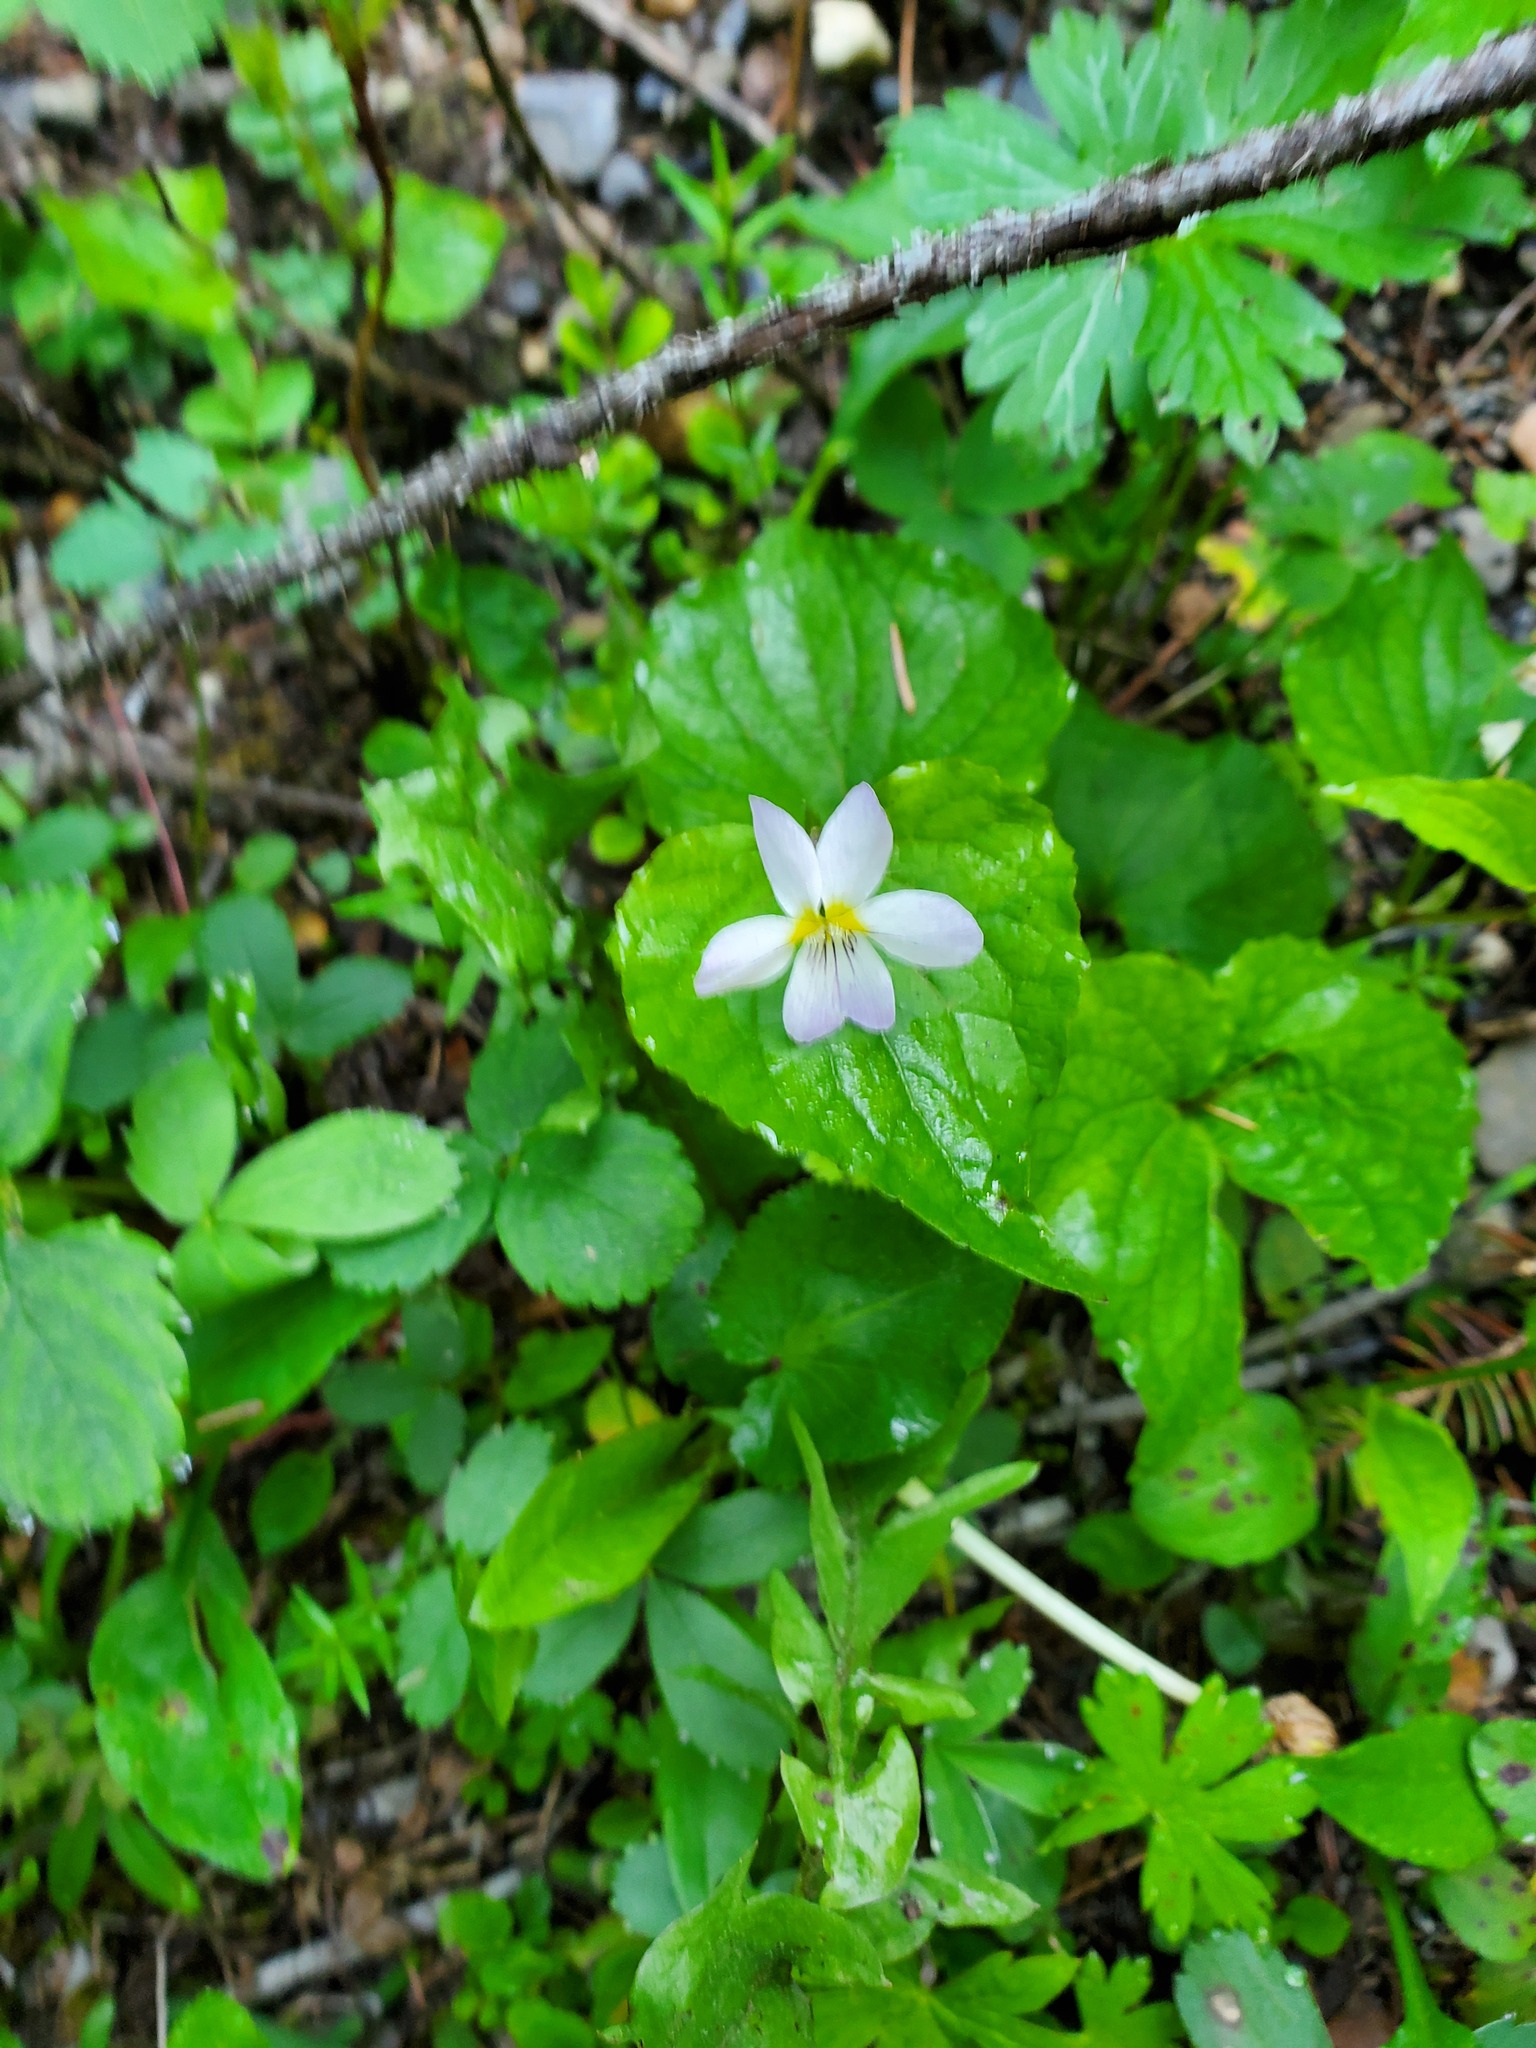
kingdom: Plantae
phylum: Tracheophyta
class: Magnoliopsida
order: Malpighiales
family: Violaceae
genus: Viola
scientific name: Viola canadensis
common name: Canada violet
